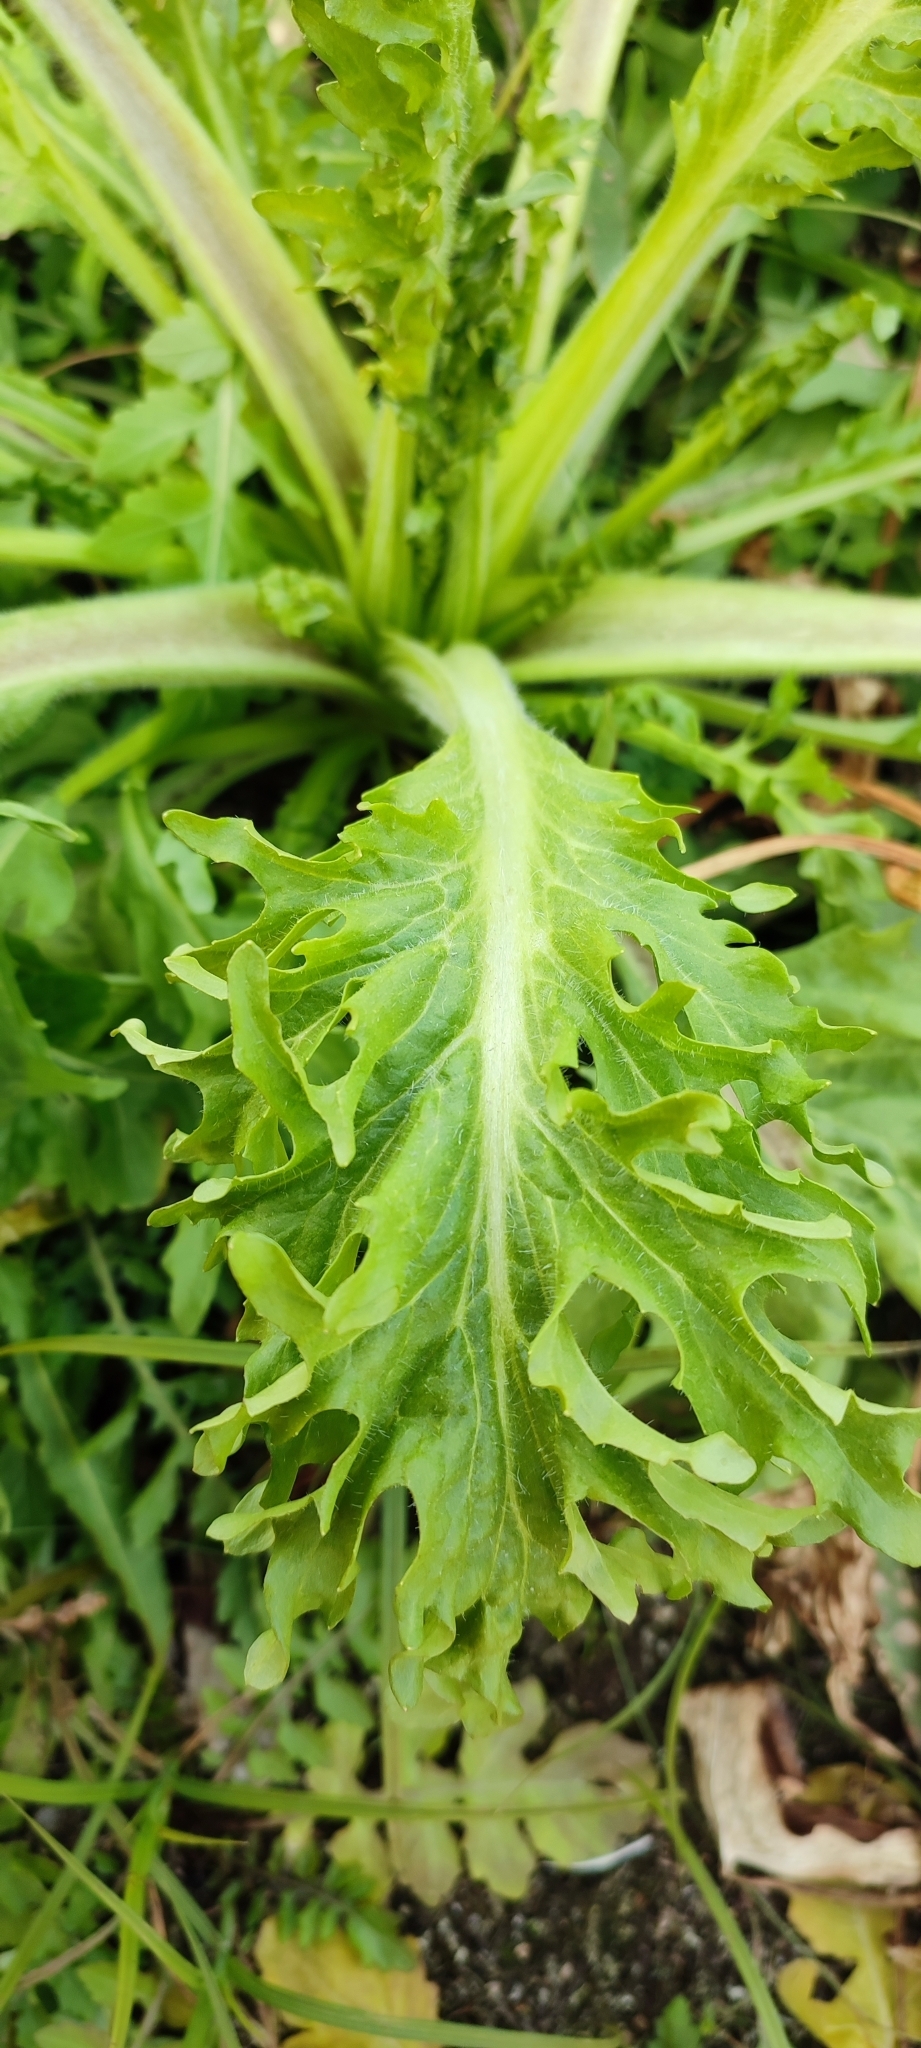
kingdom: Plantae
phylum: Tracheophyta
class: Magnoliopsida
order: Asterales
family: Asteraceae
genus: Tephroseris
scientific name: Tephroseris palustris
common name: Marsh fleawort
